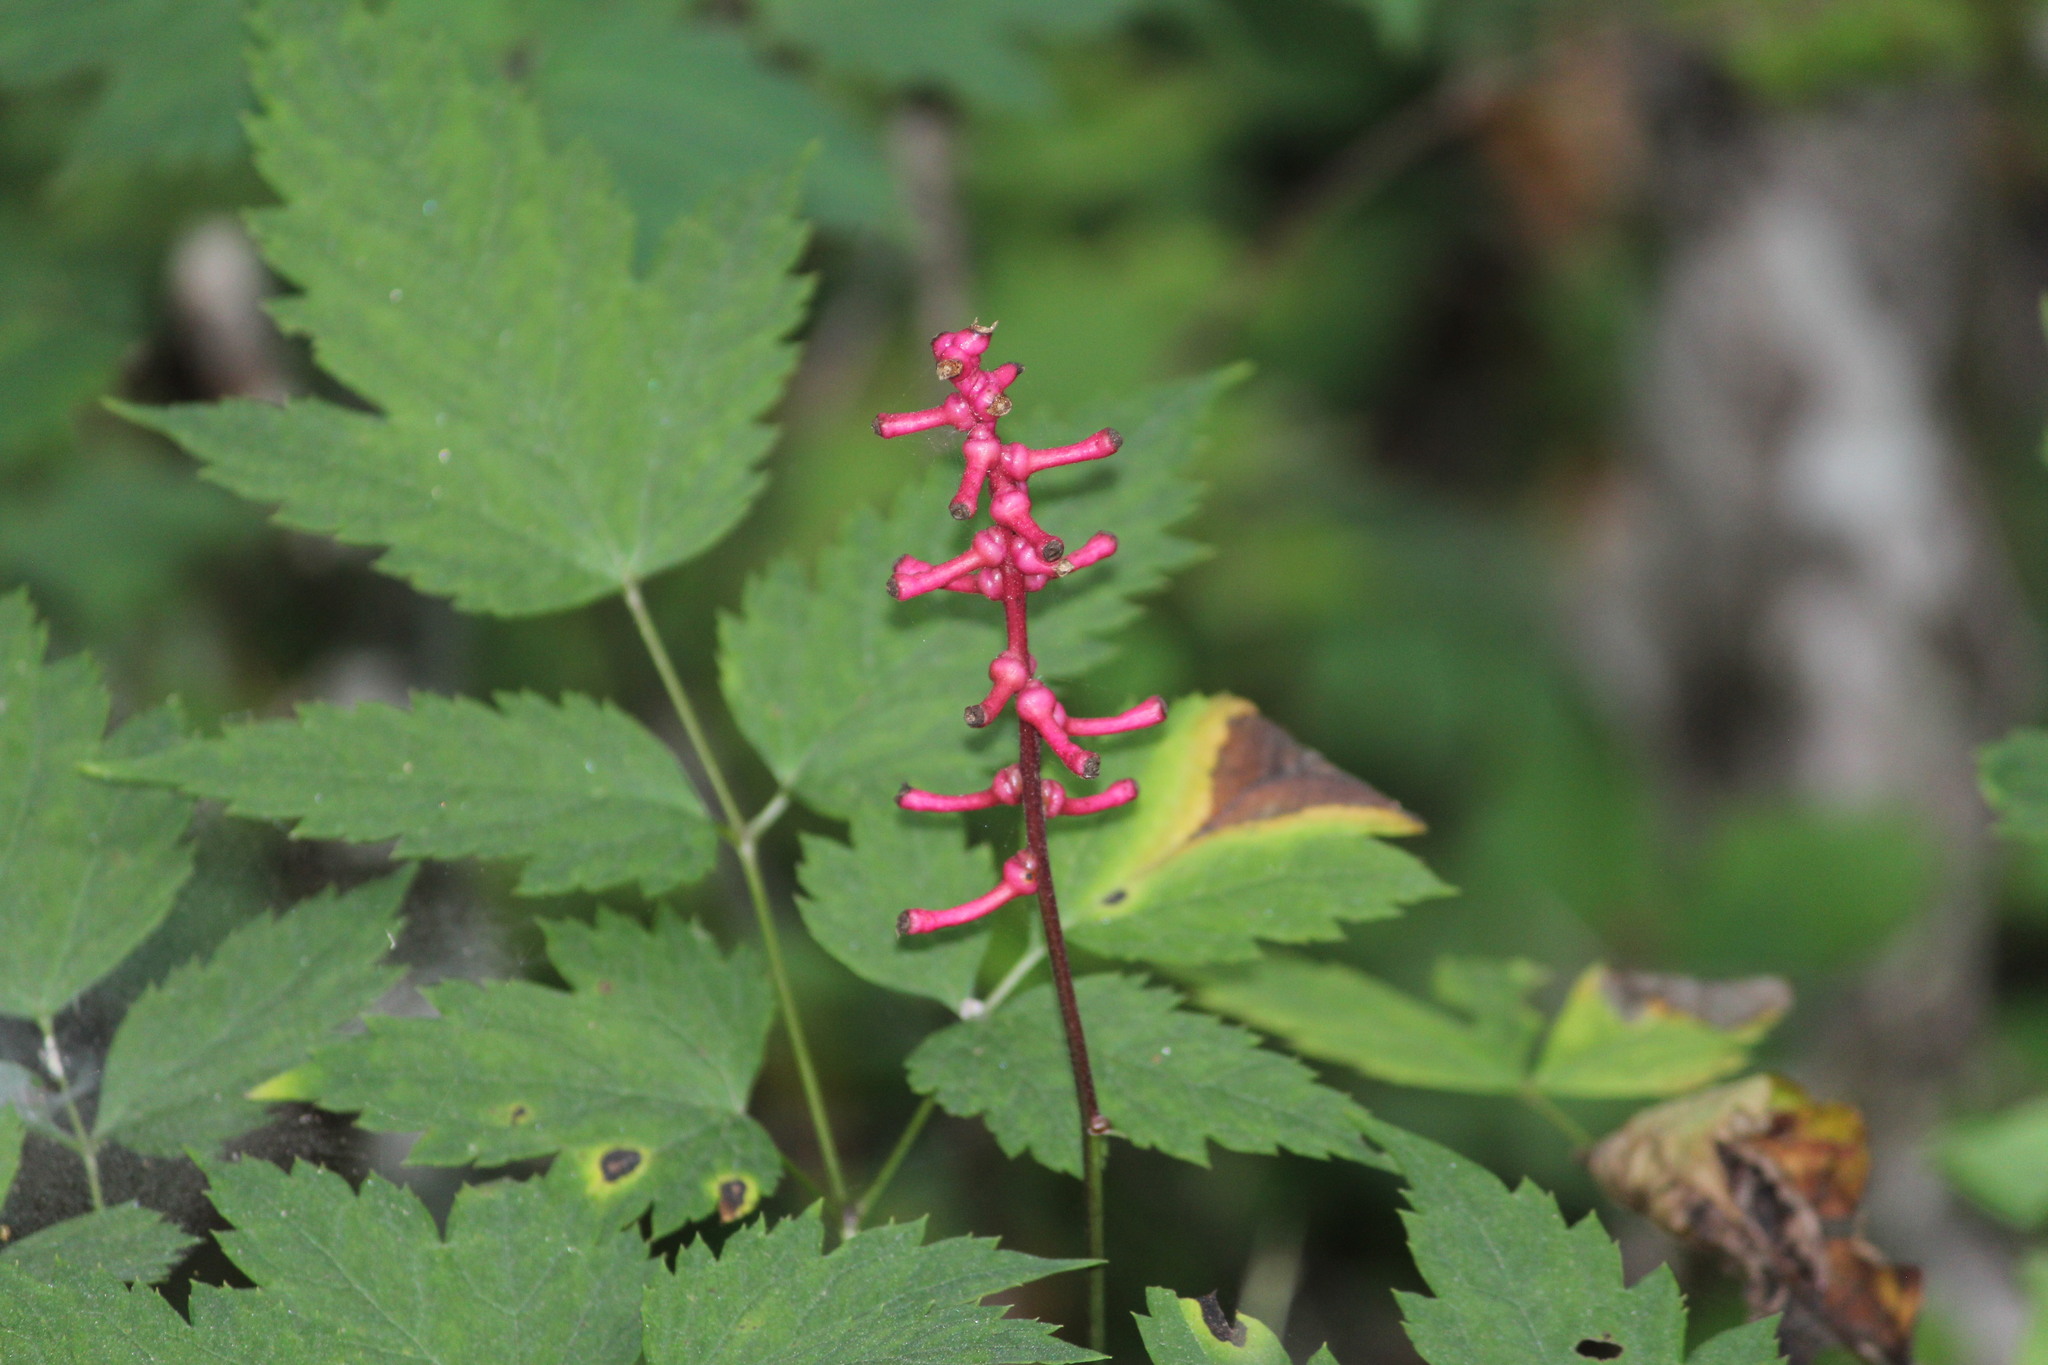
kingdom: Plantae
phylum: Tracheophyta
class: Magnoliopsida
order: Ranunculales
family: Ranunculaceae
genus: Actaea
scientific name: Actaea pachypoda
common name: Doll's-eyes
